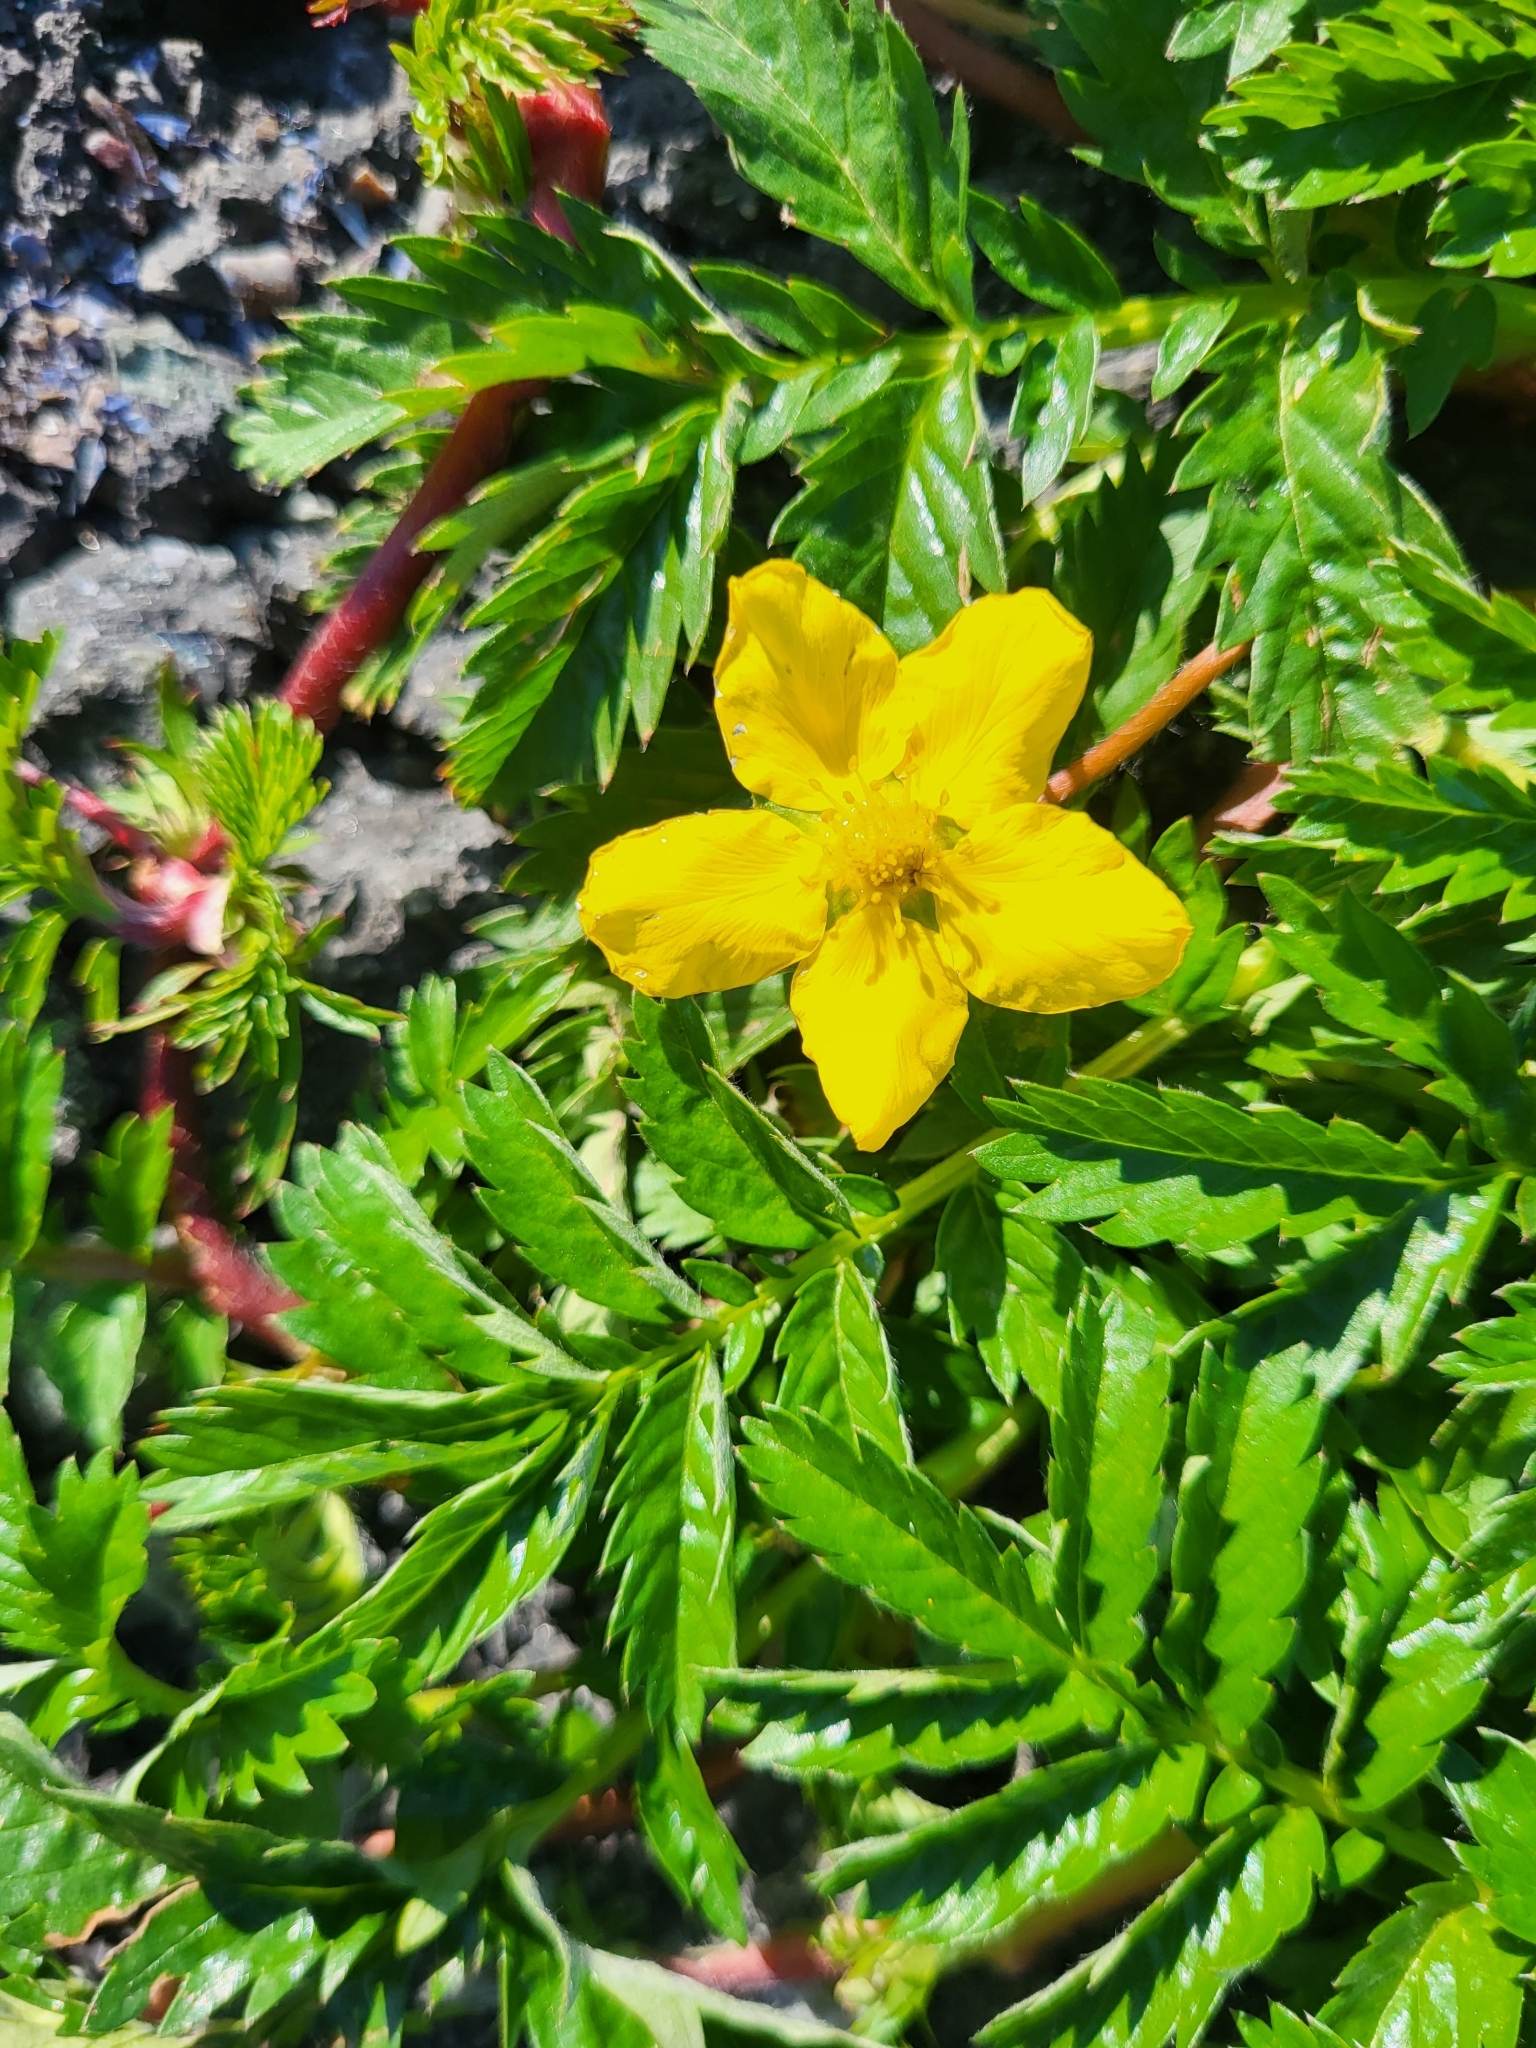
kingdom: Plantae
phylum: Tracheophyta
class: Magnoliopsida
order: Rosales
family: Rosaceae
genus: Argentina
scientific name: Argentina anserina
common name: Common silverweed
